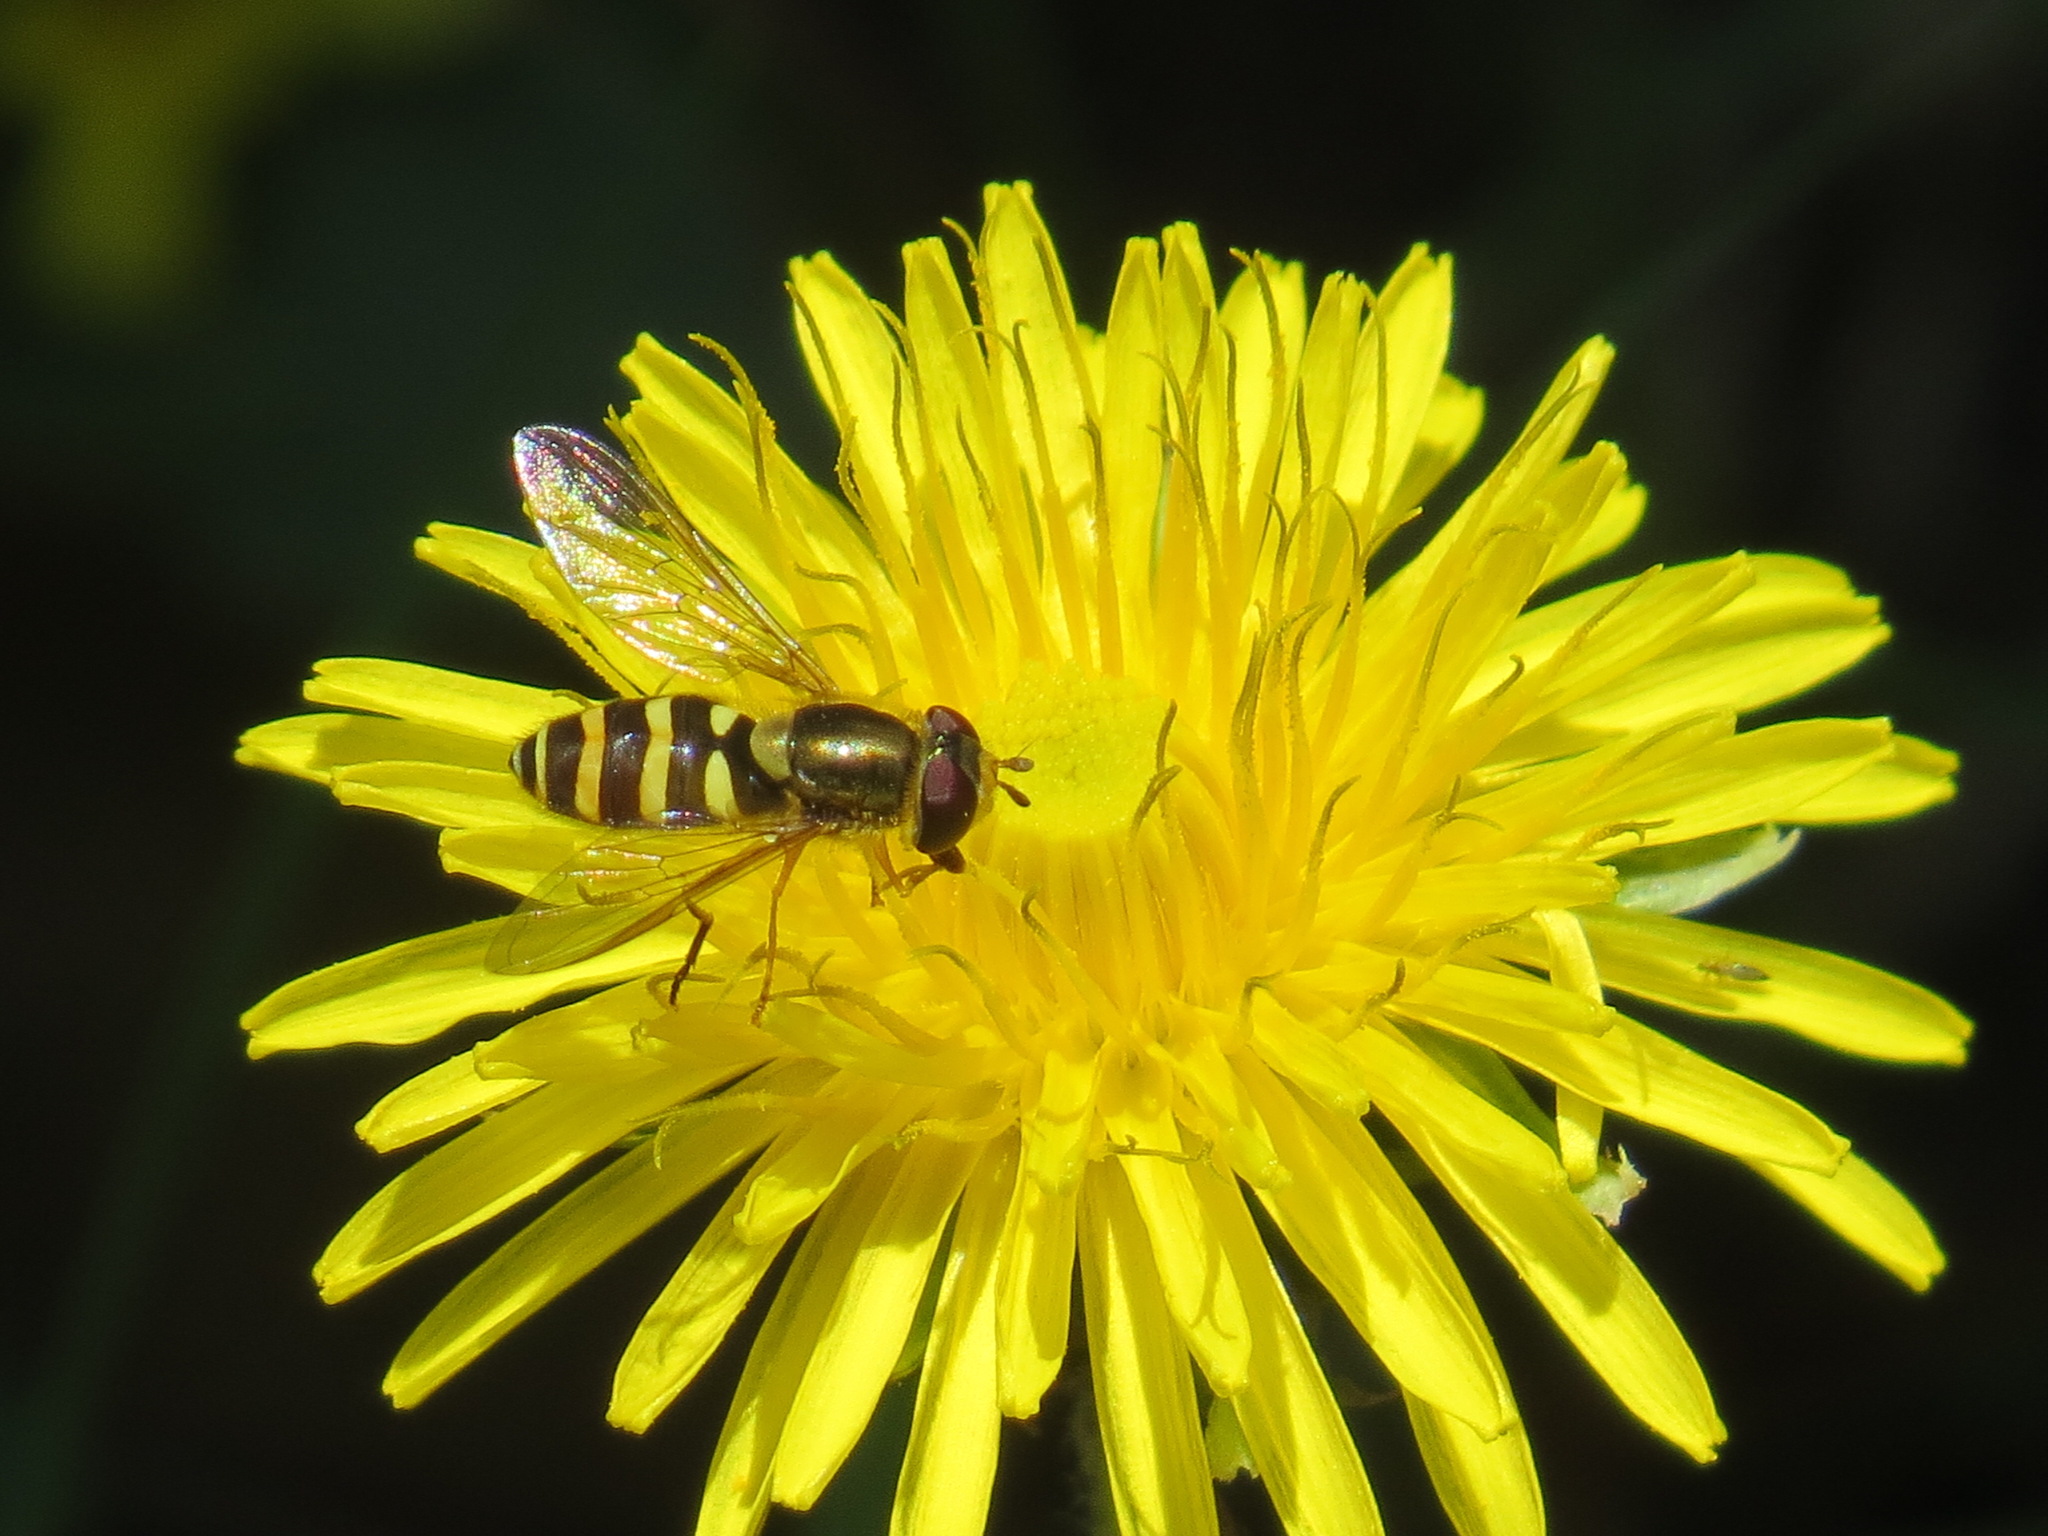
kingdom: Animalia
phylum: Arthropoda
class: Insecta
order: Diptera
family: Syrphidae
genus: Syrphus
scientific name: Syrphus opinator
